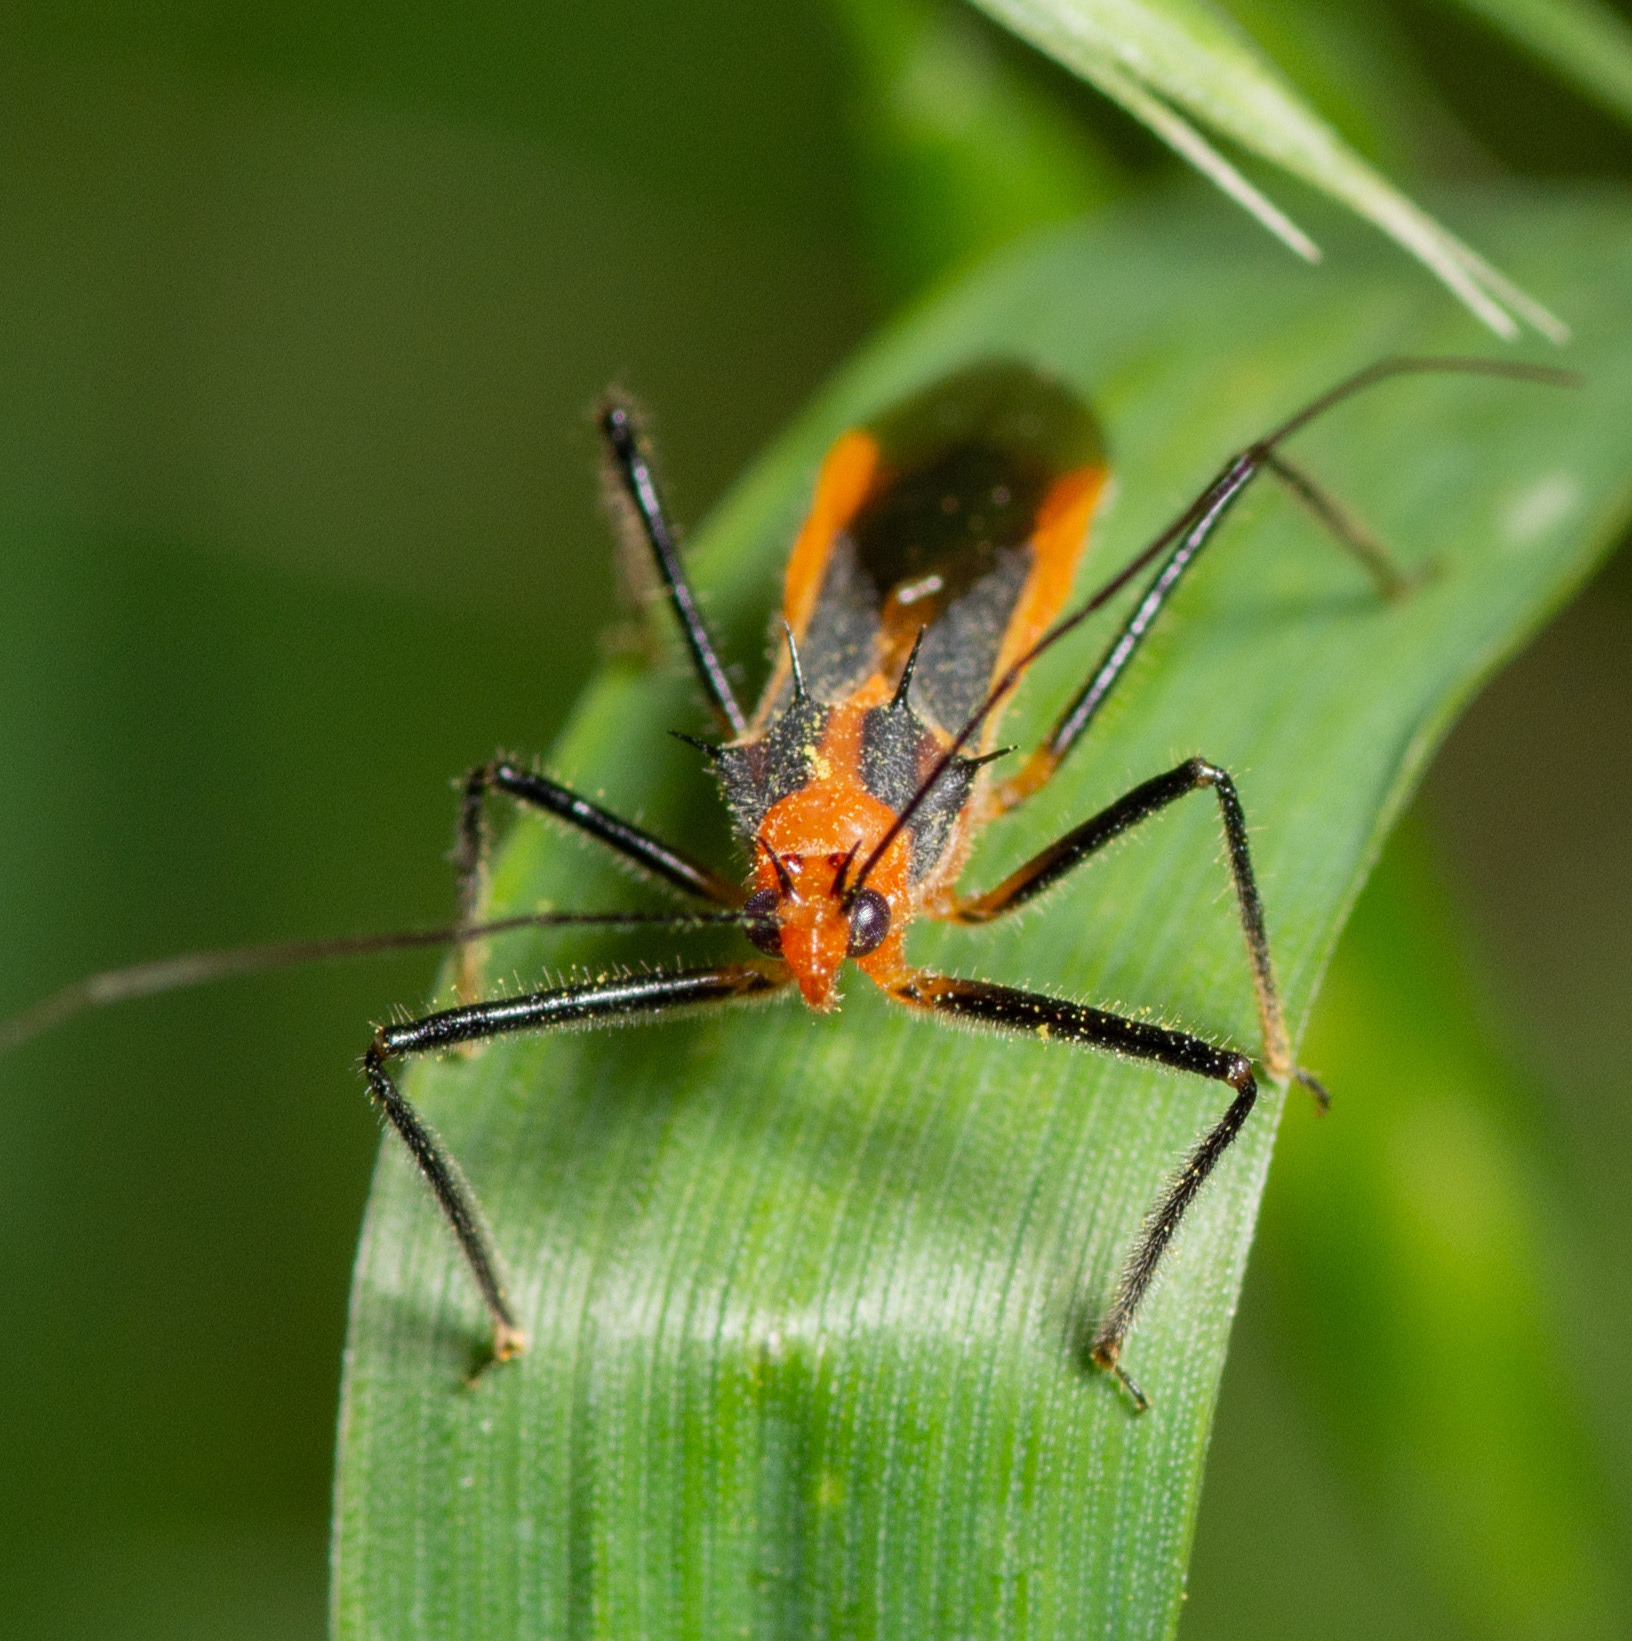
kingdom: Animalia
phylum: Arthropoda
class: Insecta
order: Hemiptera
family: Reduviidae
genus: Repipta
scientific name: Repipta taurus
